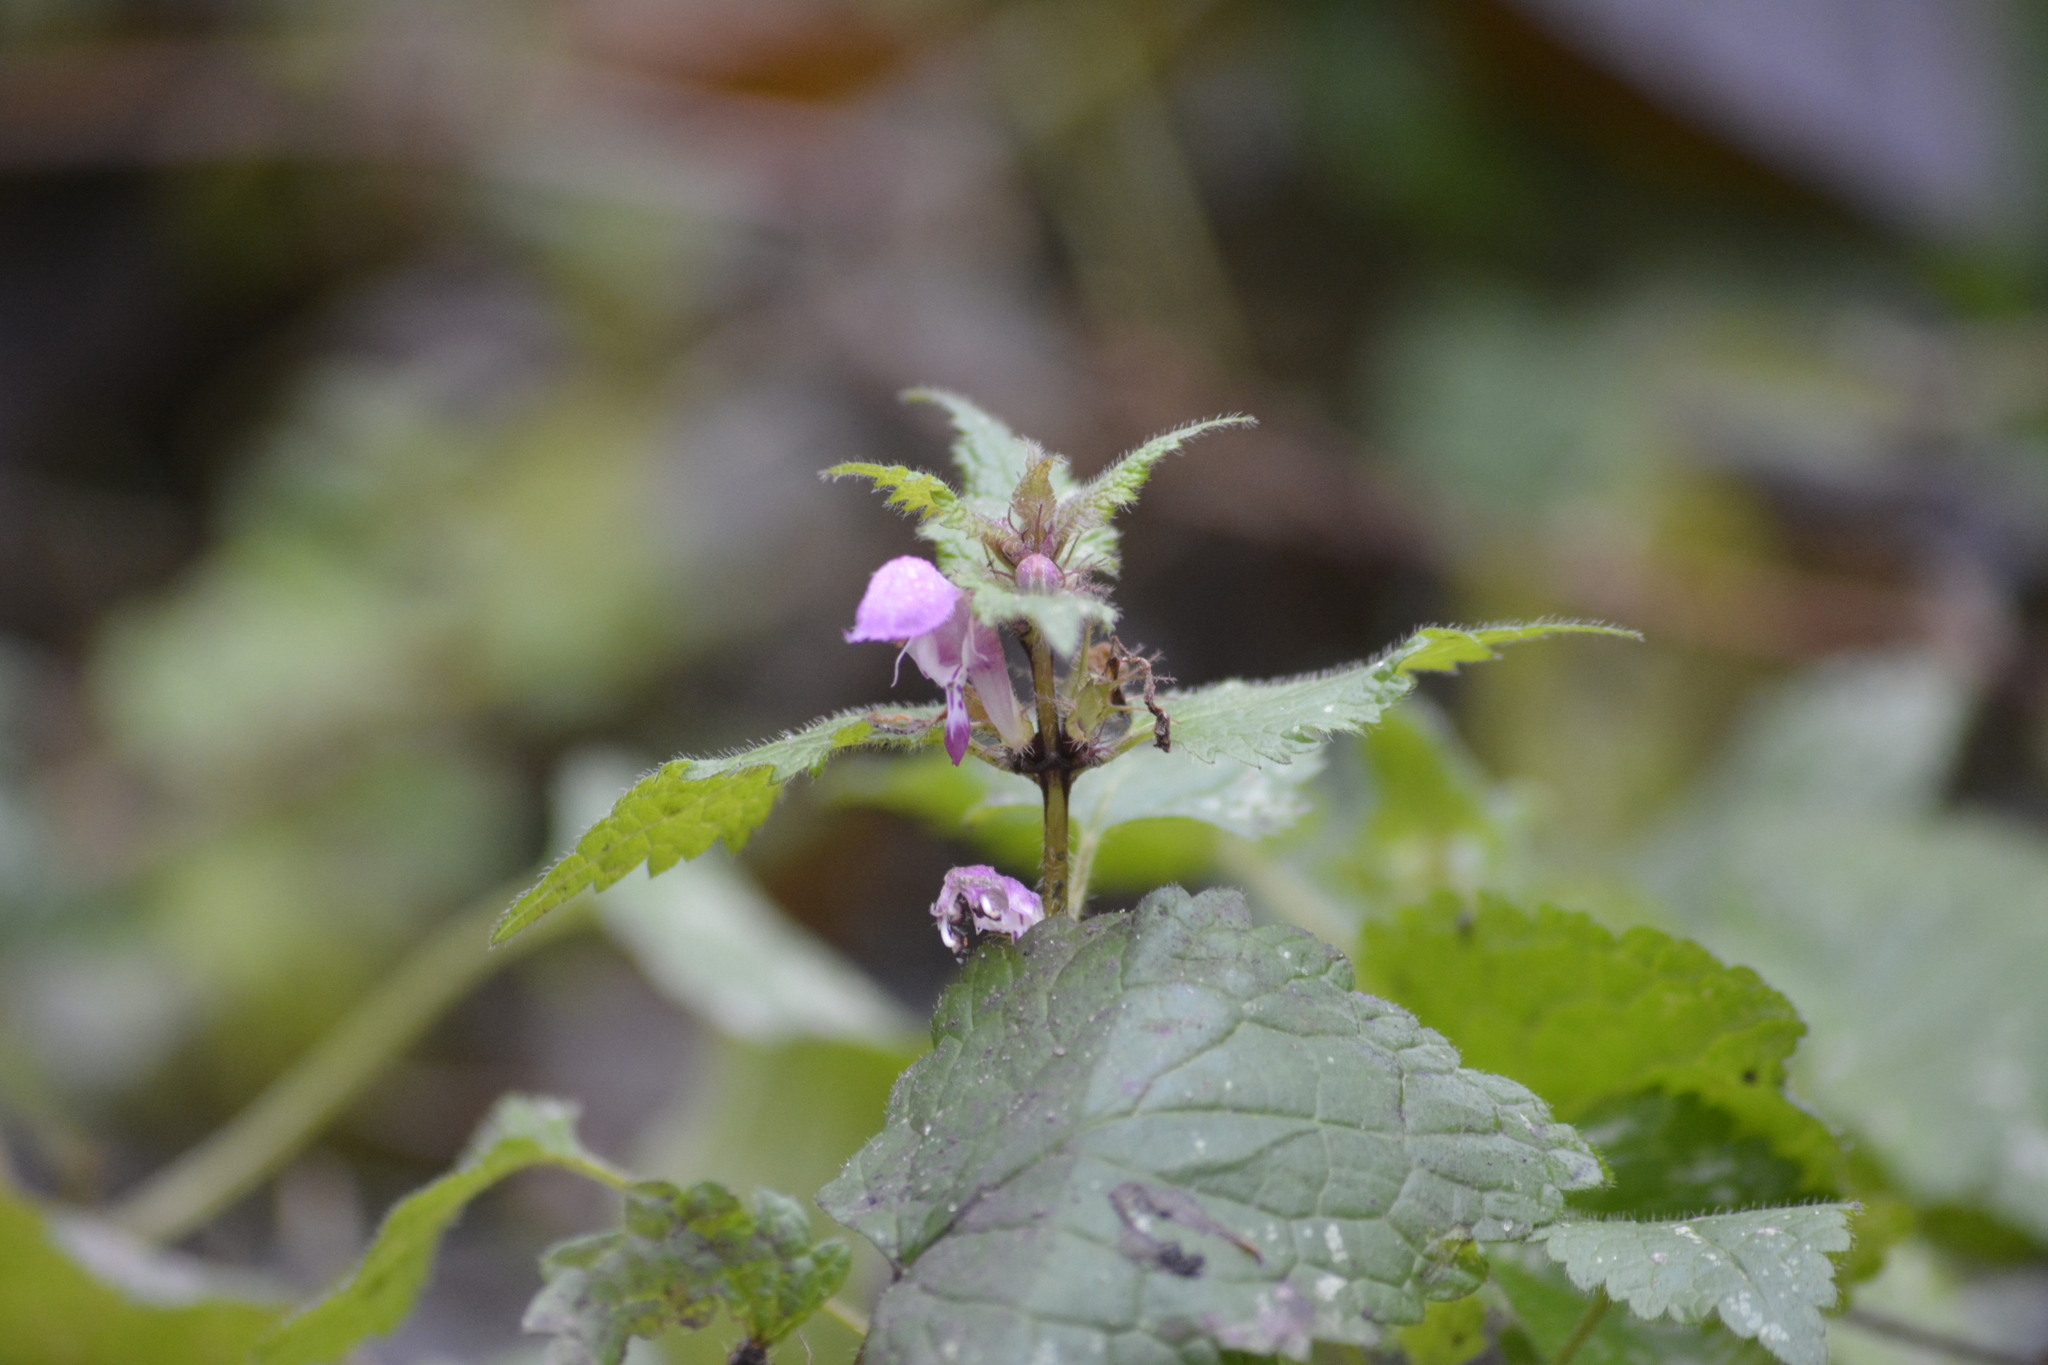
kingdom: Plantae
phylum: Tracheophyta
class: Magnoliopsida
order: Lamiales
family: Lamiaceae
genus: Lamium
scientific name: Lamium maculatum
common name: Spotted dead-nettle
